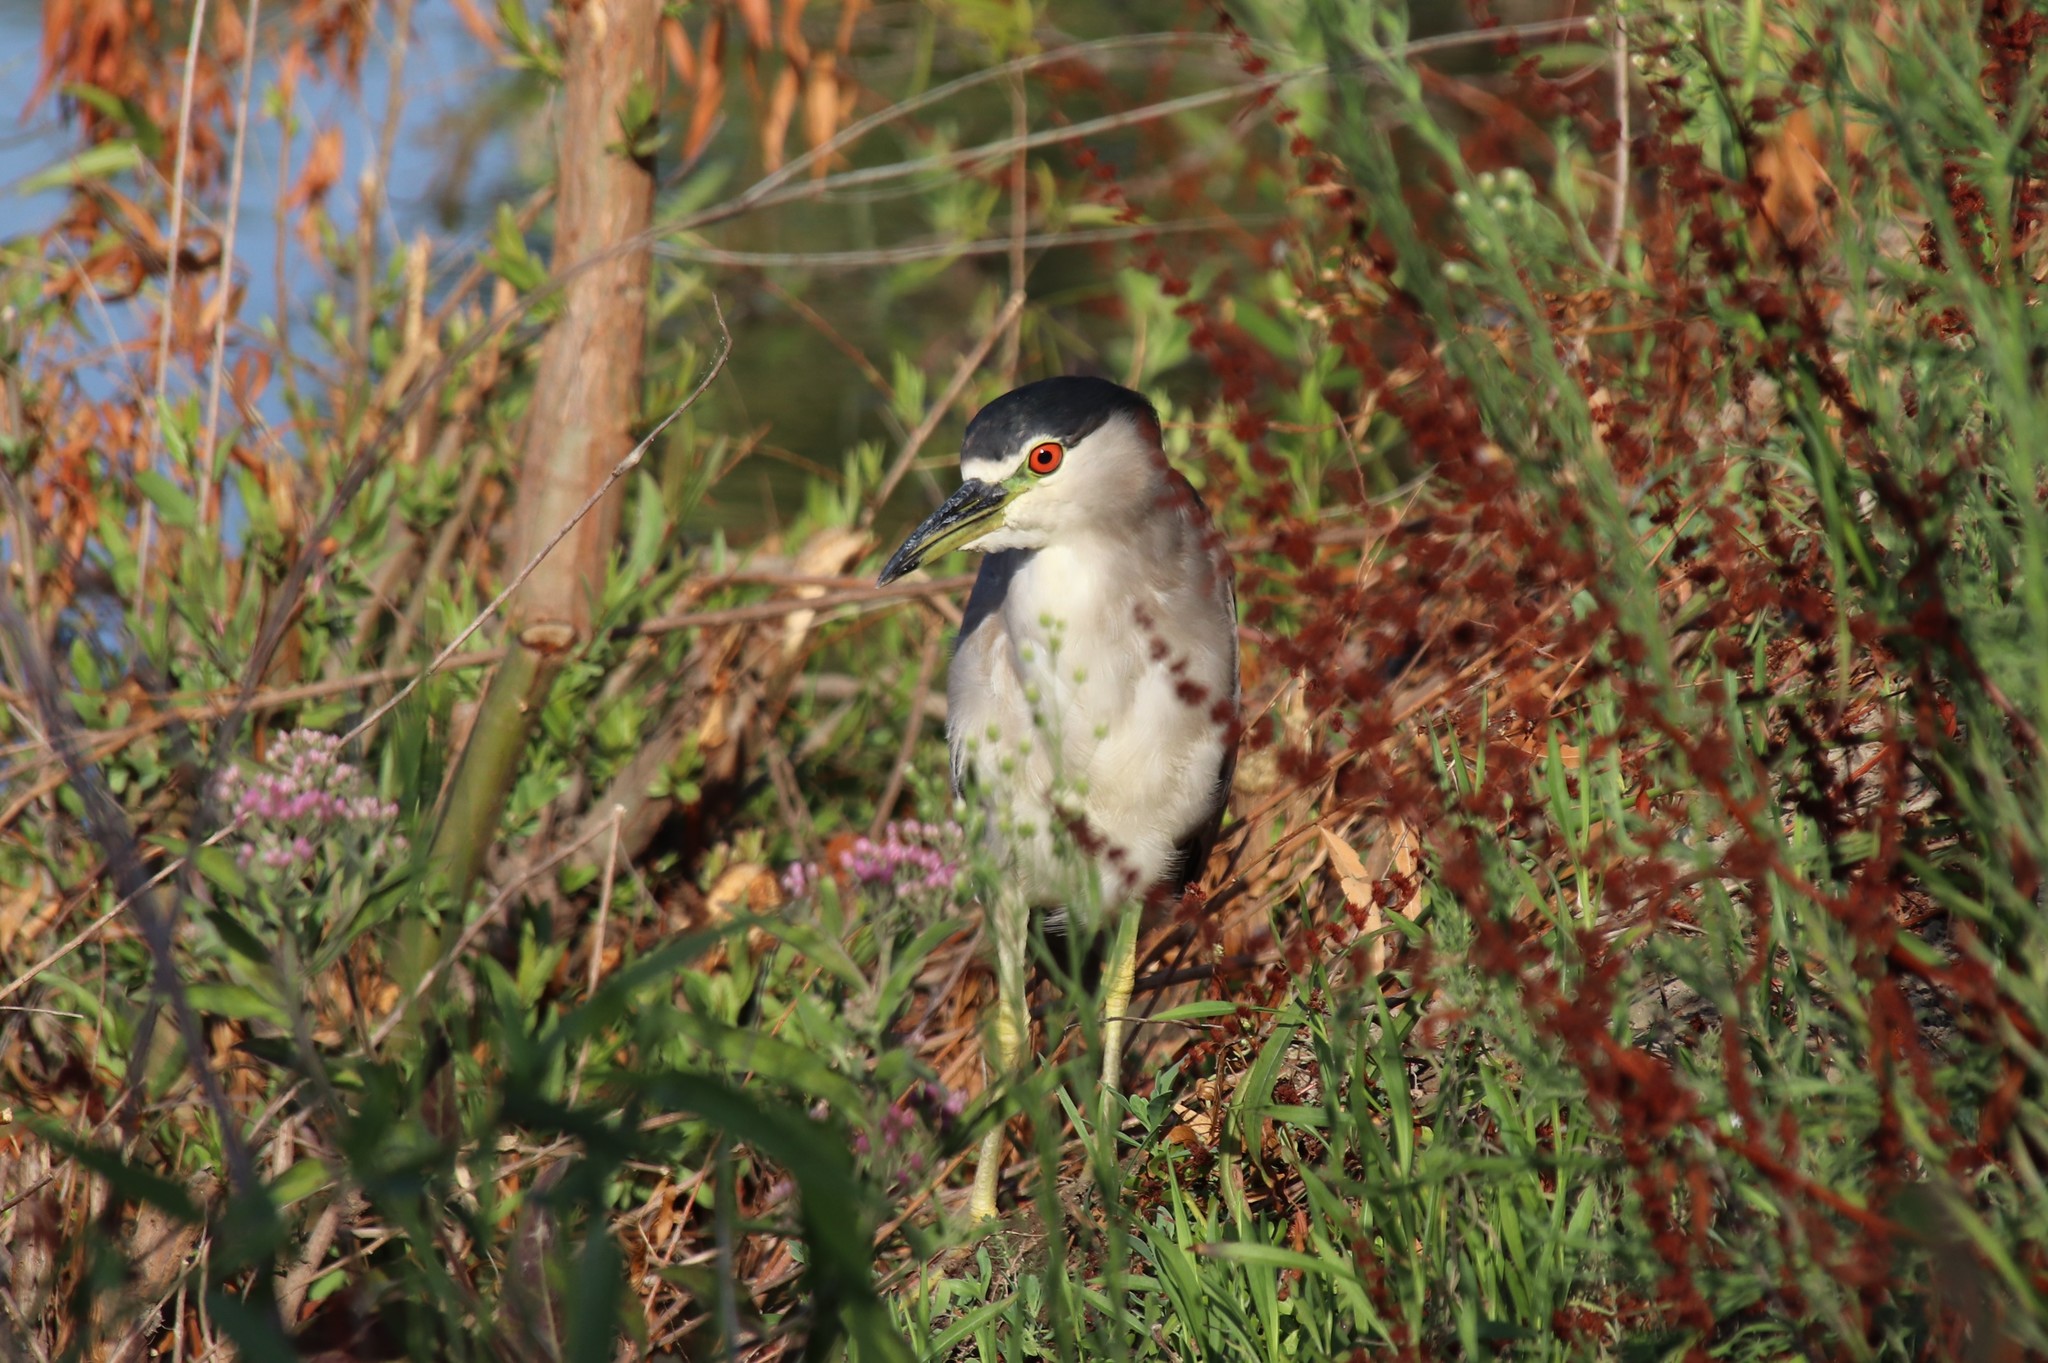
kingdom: Animalia
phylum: Chordata
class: Aves
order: Pelecaniformes
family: Ardeidae
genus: Nycticorax
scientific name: Nycticorax nycticorax
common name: Black-crowned night heron
